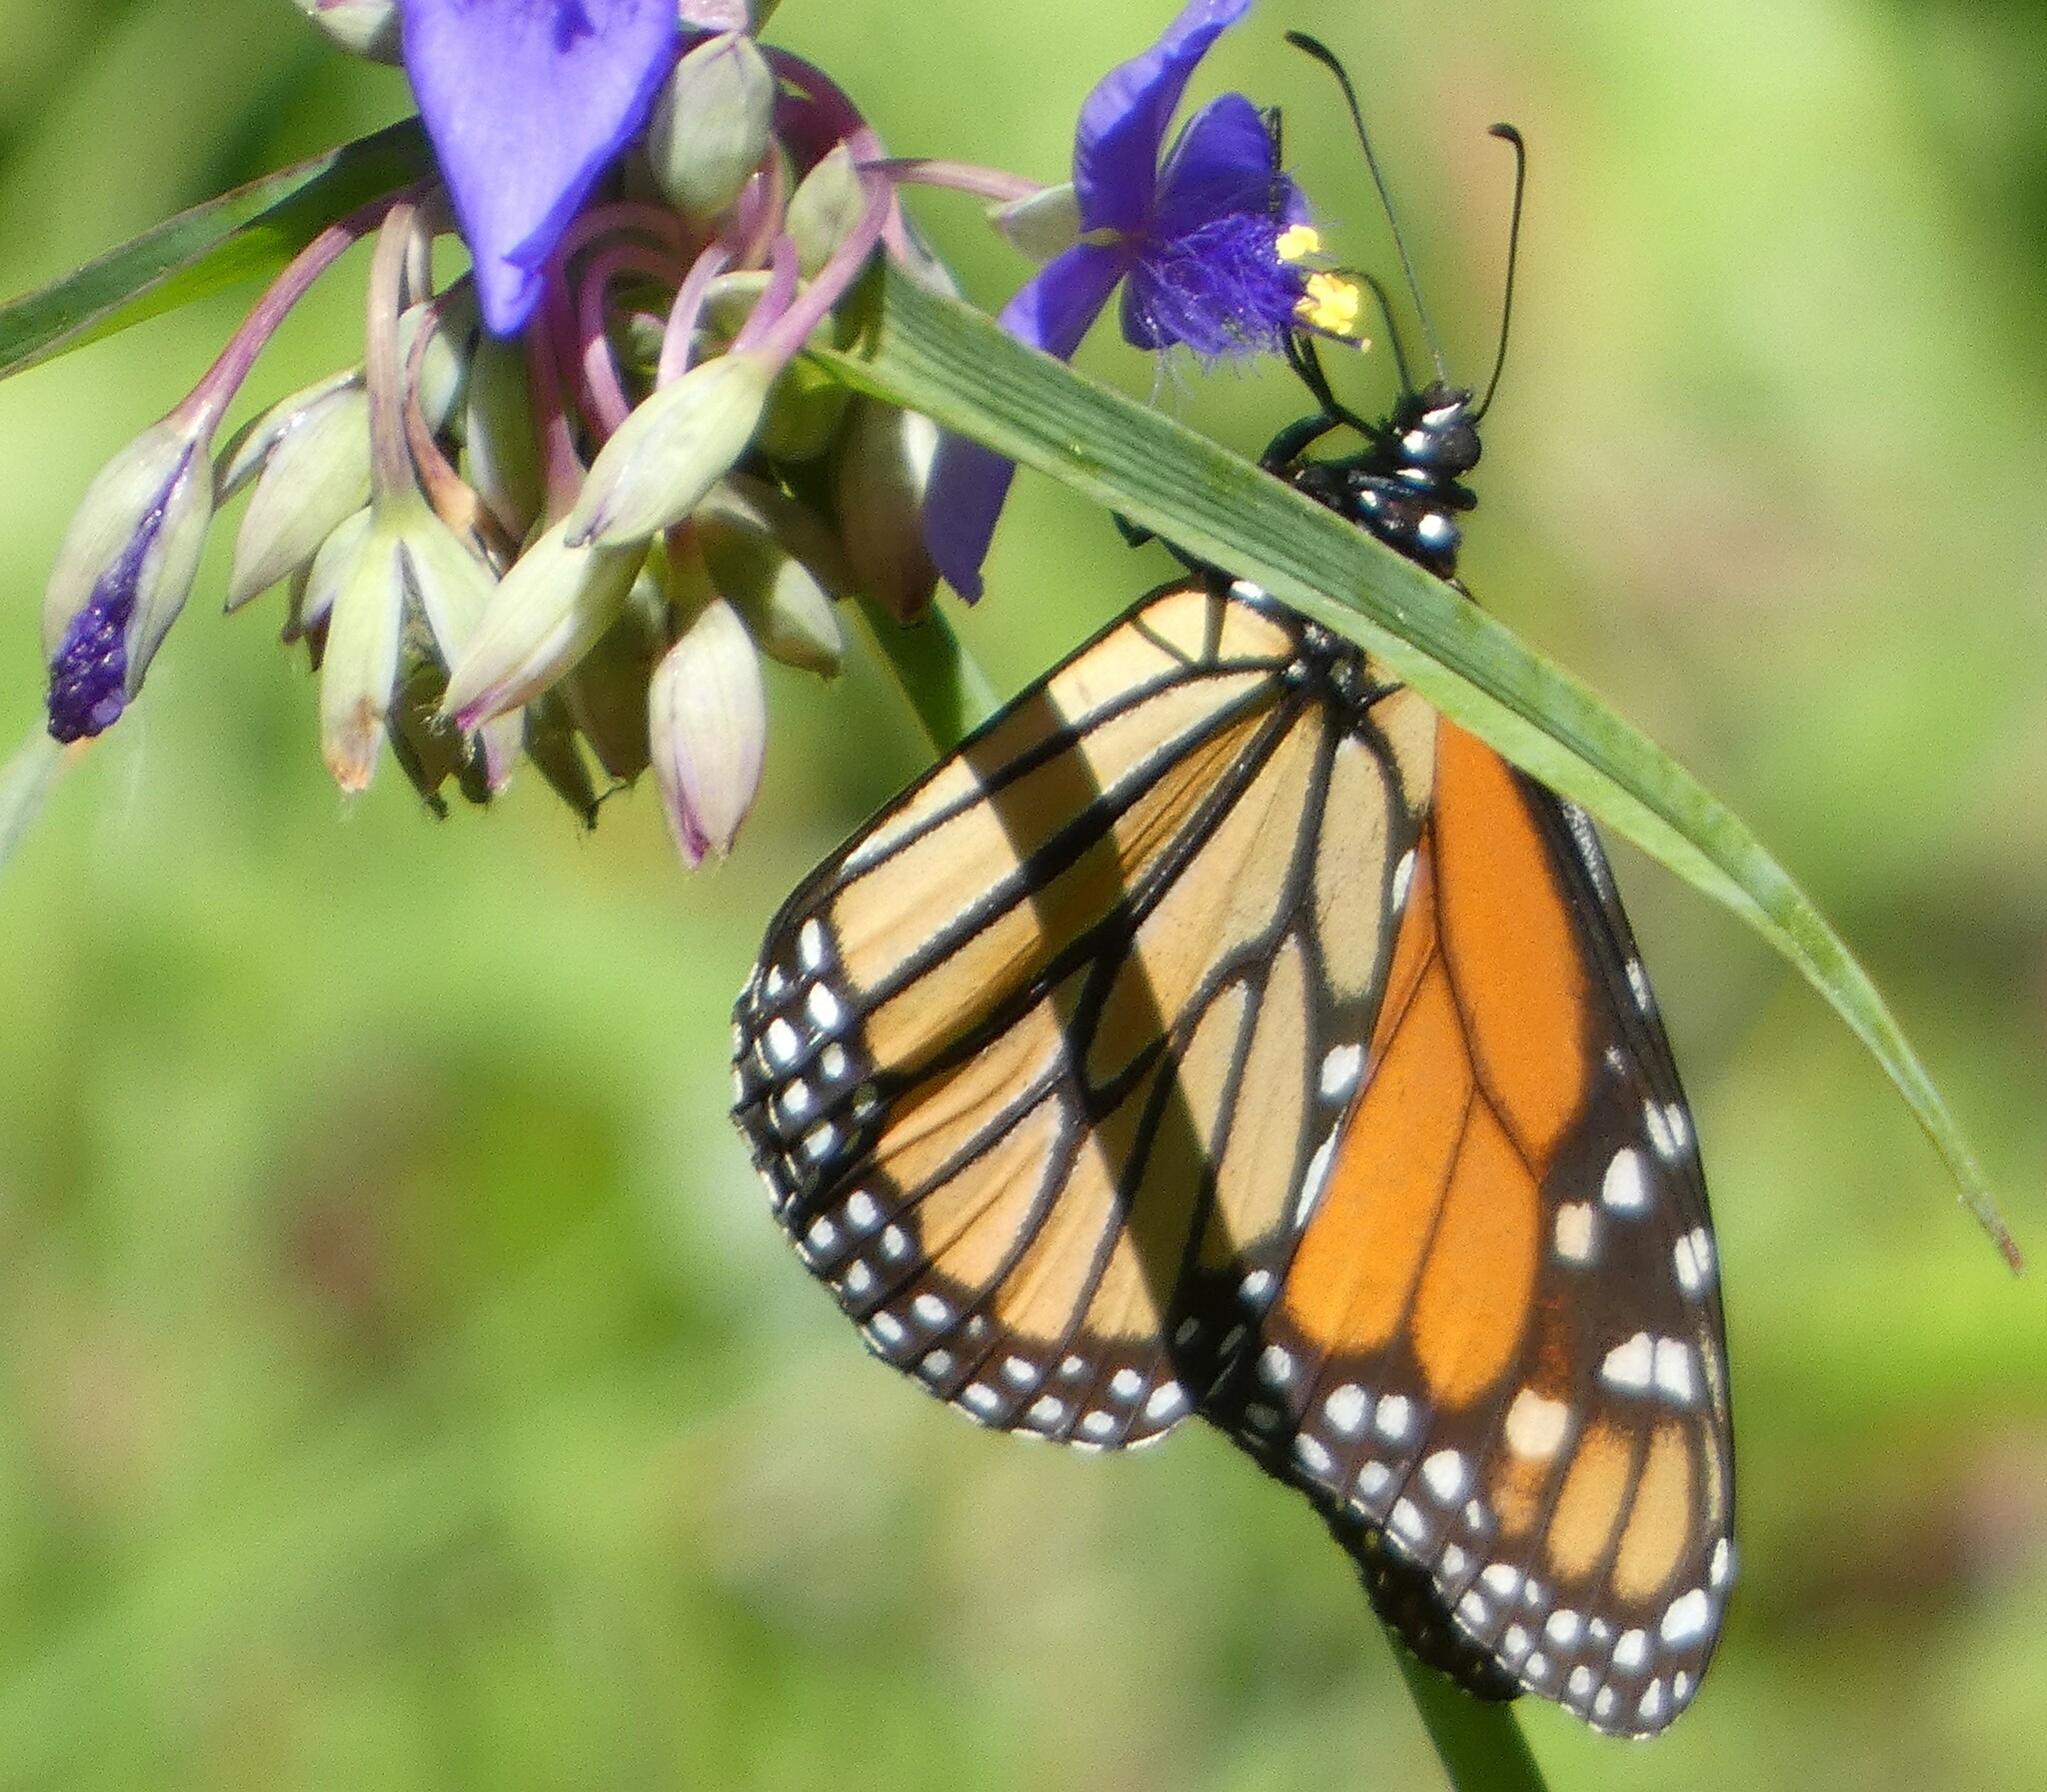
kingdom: Animalia
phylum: Arthropoda
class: Insecta
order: Lepidoptera
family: Nymphalidae
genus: Danaus
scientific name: Danaus plexippus
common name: Monarch
